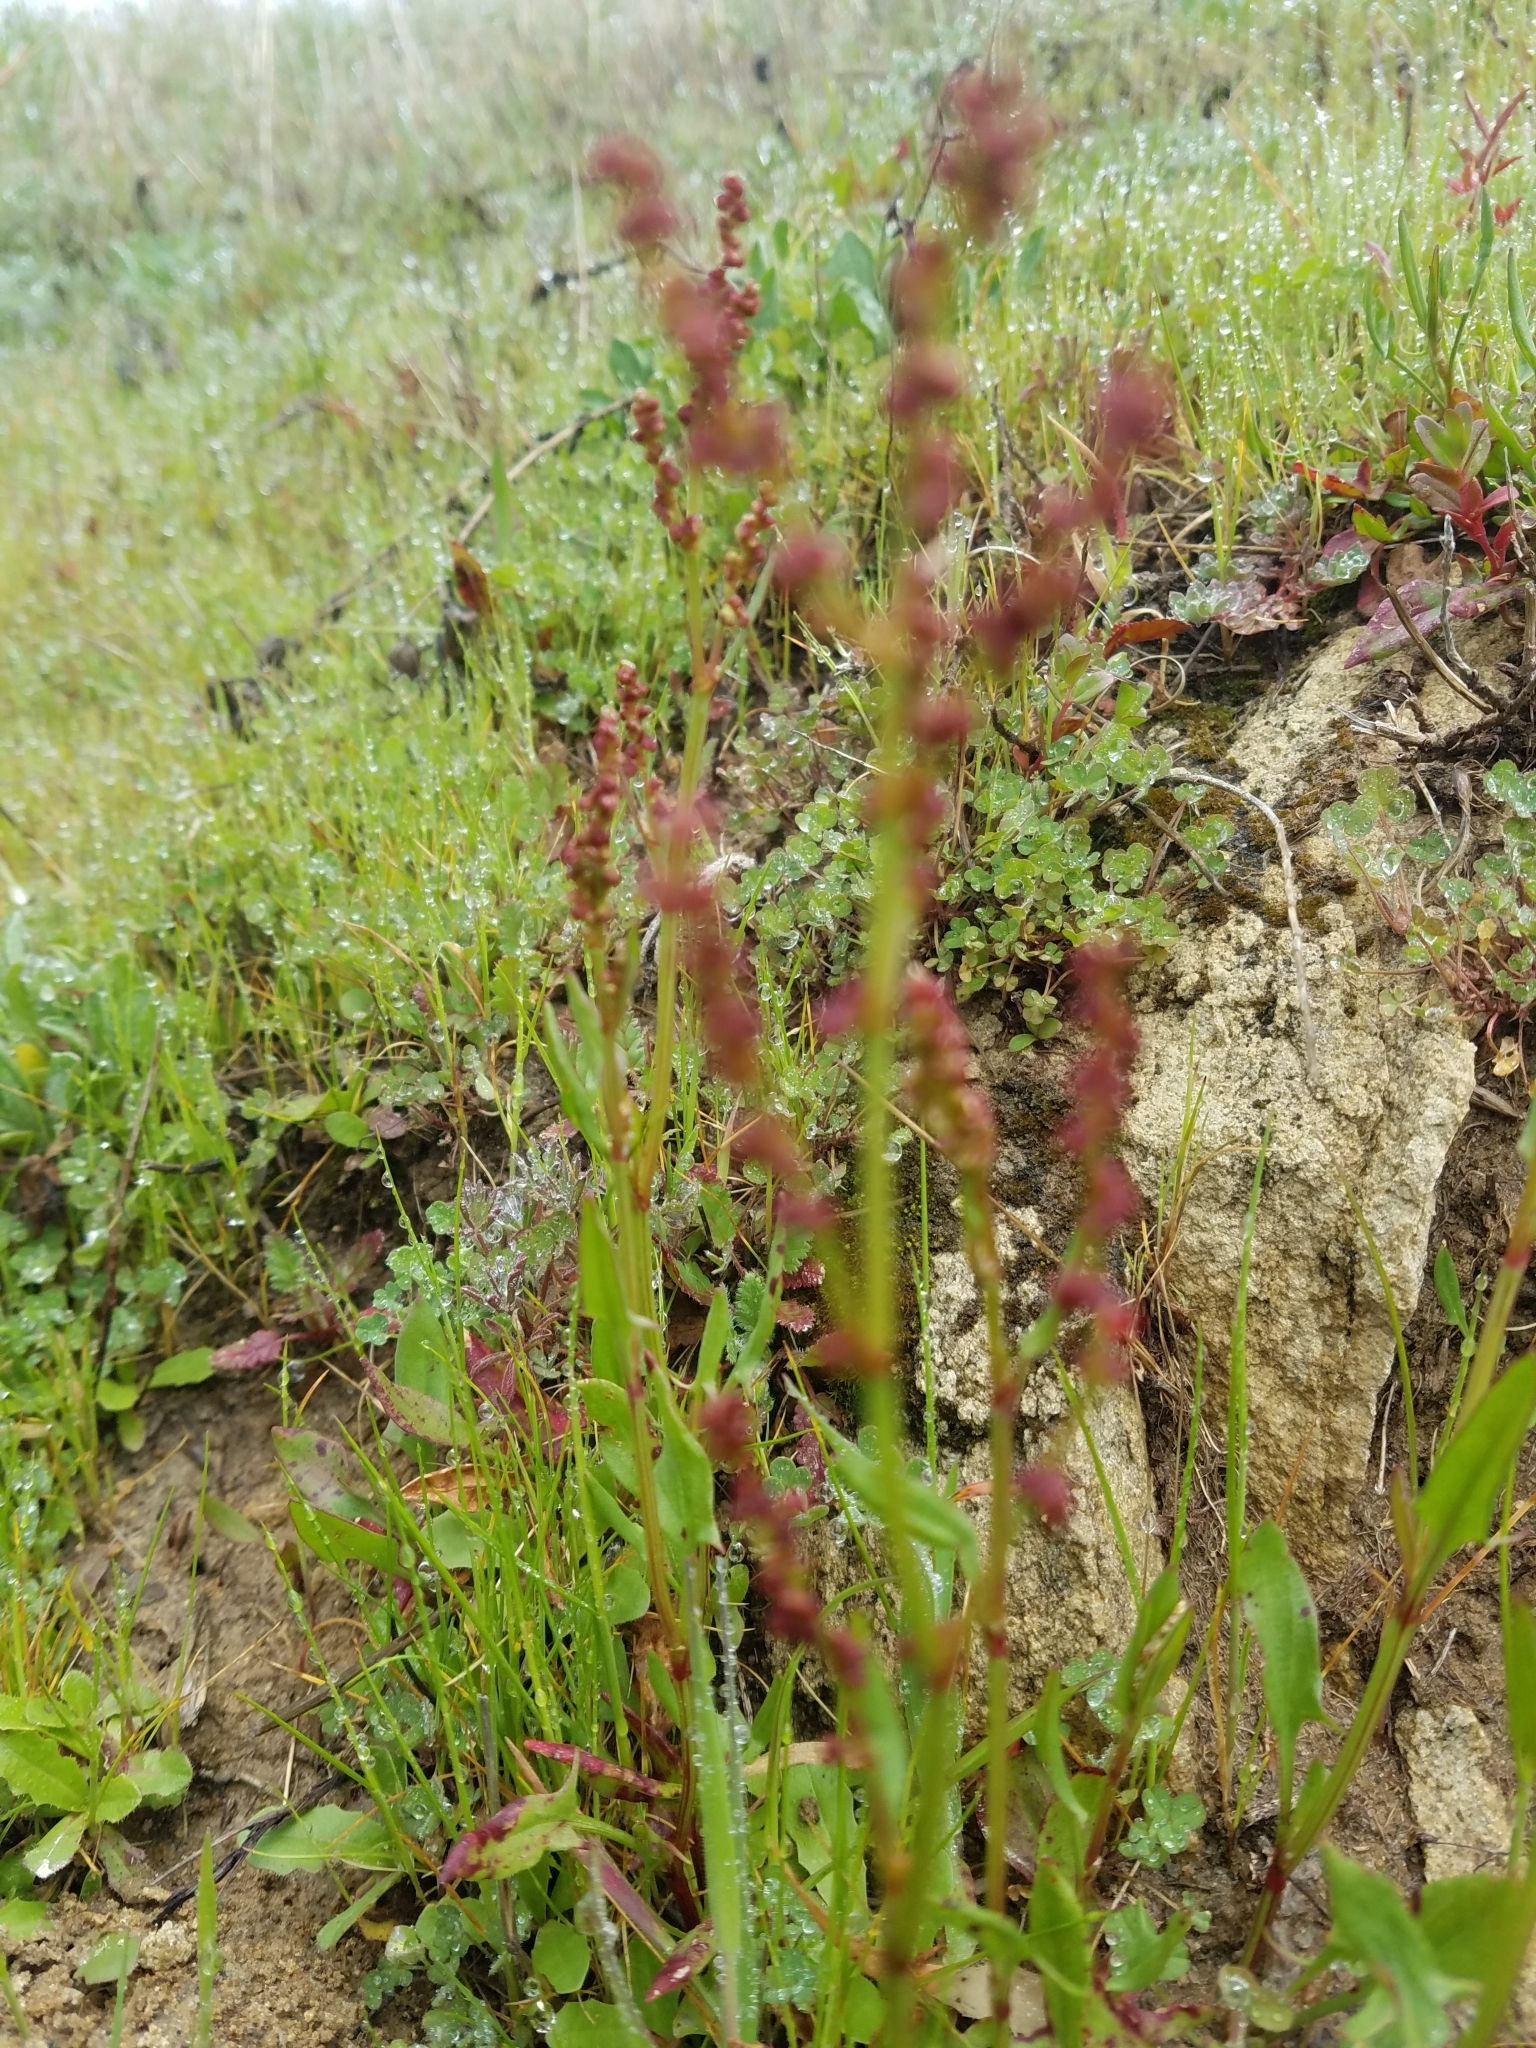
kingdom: Plantae
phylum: Tracheophyta
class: Magnoliopsida
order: Caryophyllales
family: Polygonaceae
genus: Rumex
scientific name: Rumex acetosella
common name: Common sheep sorrel
